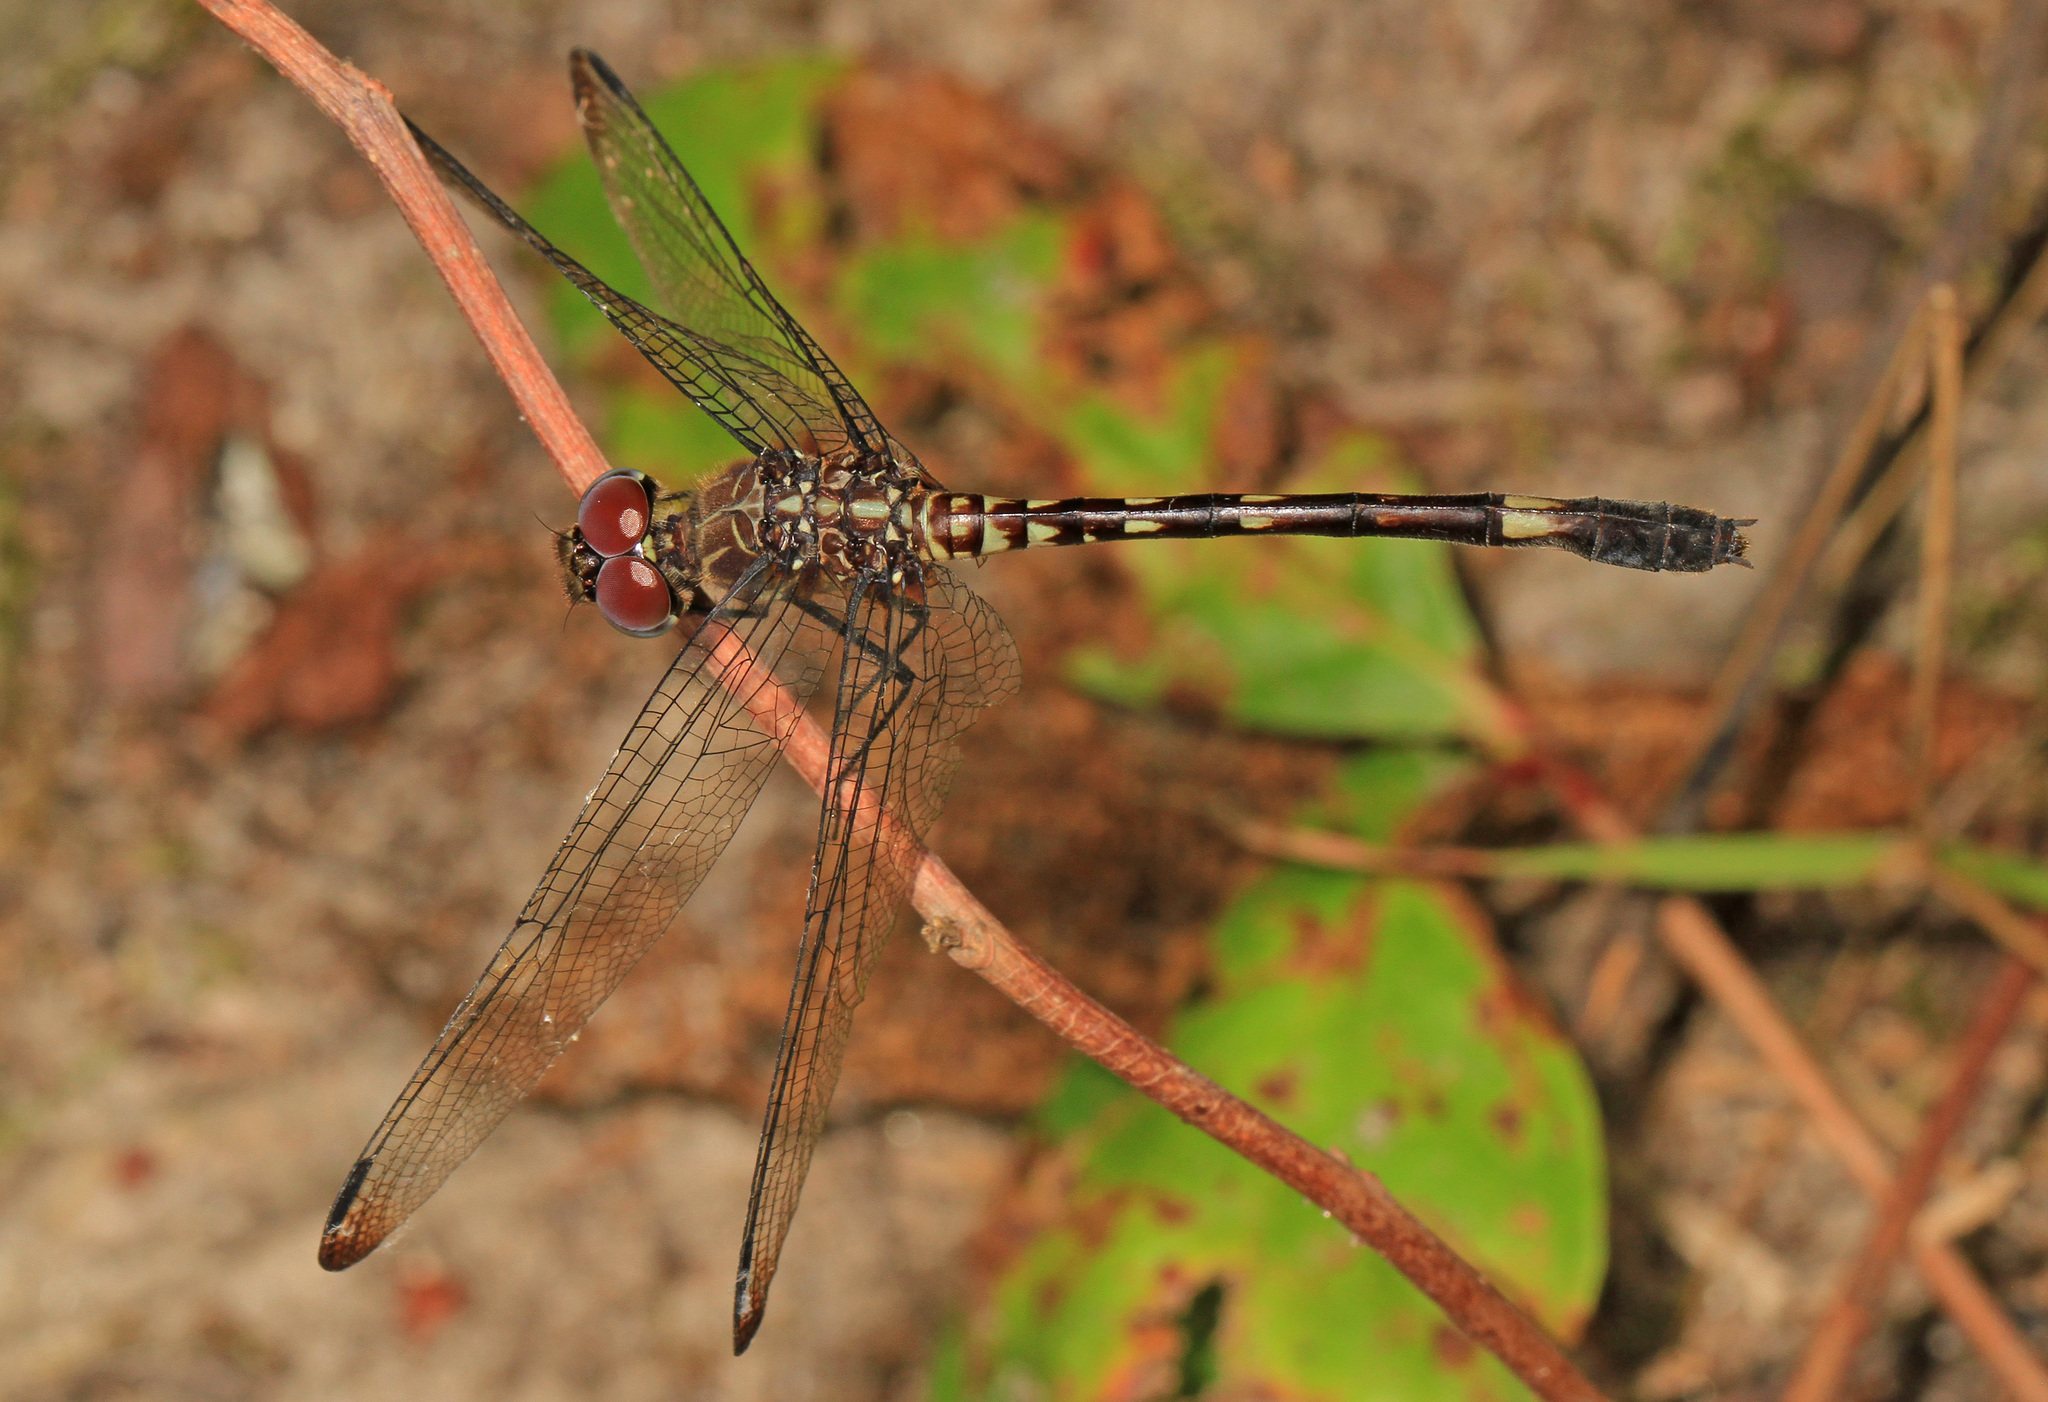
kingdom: Animalia
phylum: Arthropoda
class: Insecta
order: Odonata
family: Libellulidae
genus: Dythemis
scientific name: Dythemis velox
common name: Swift setwing
